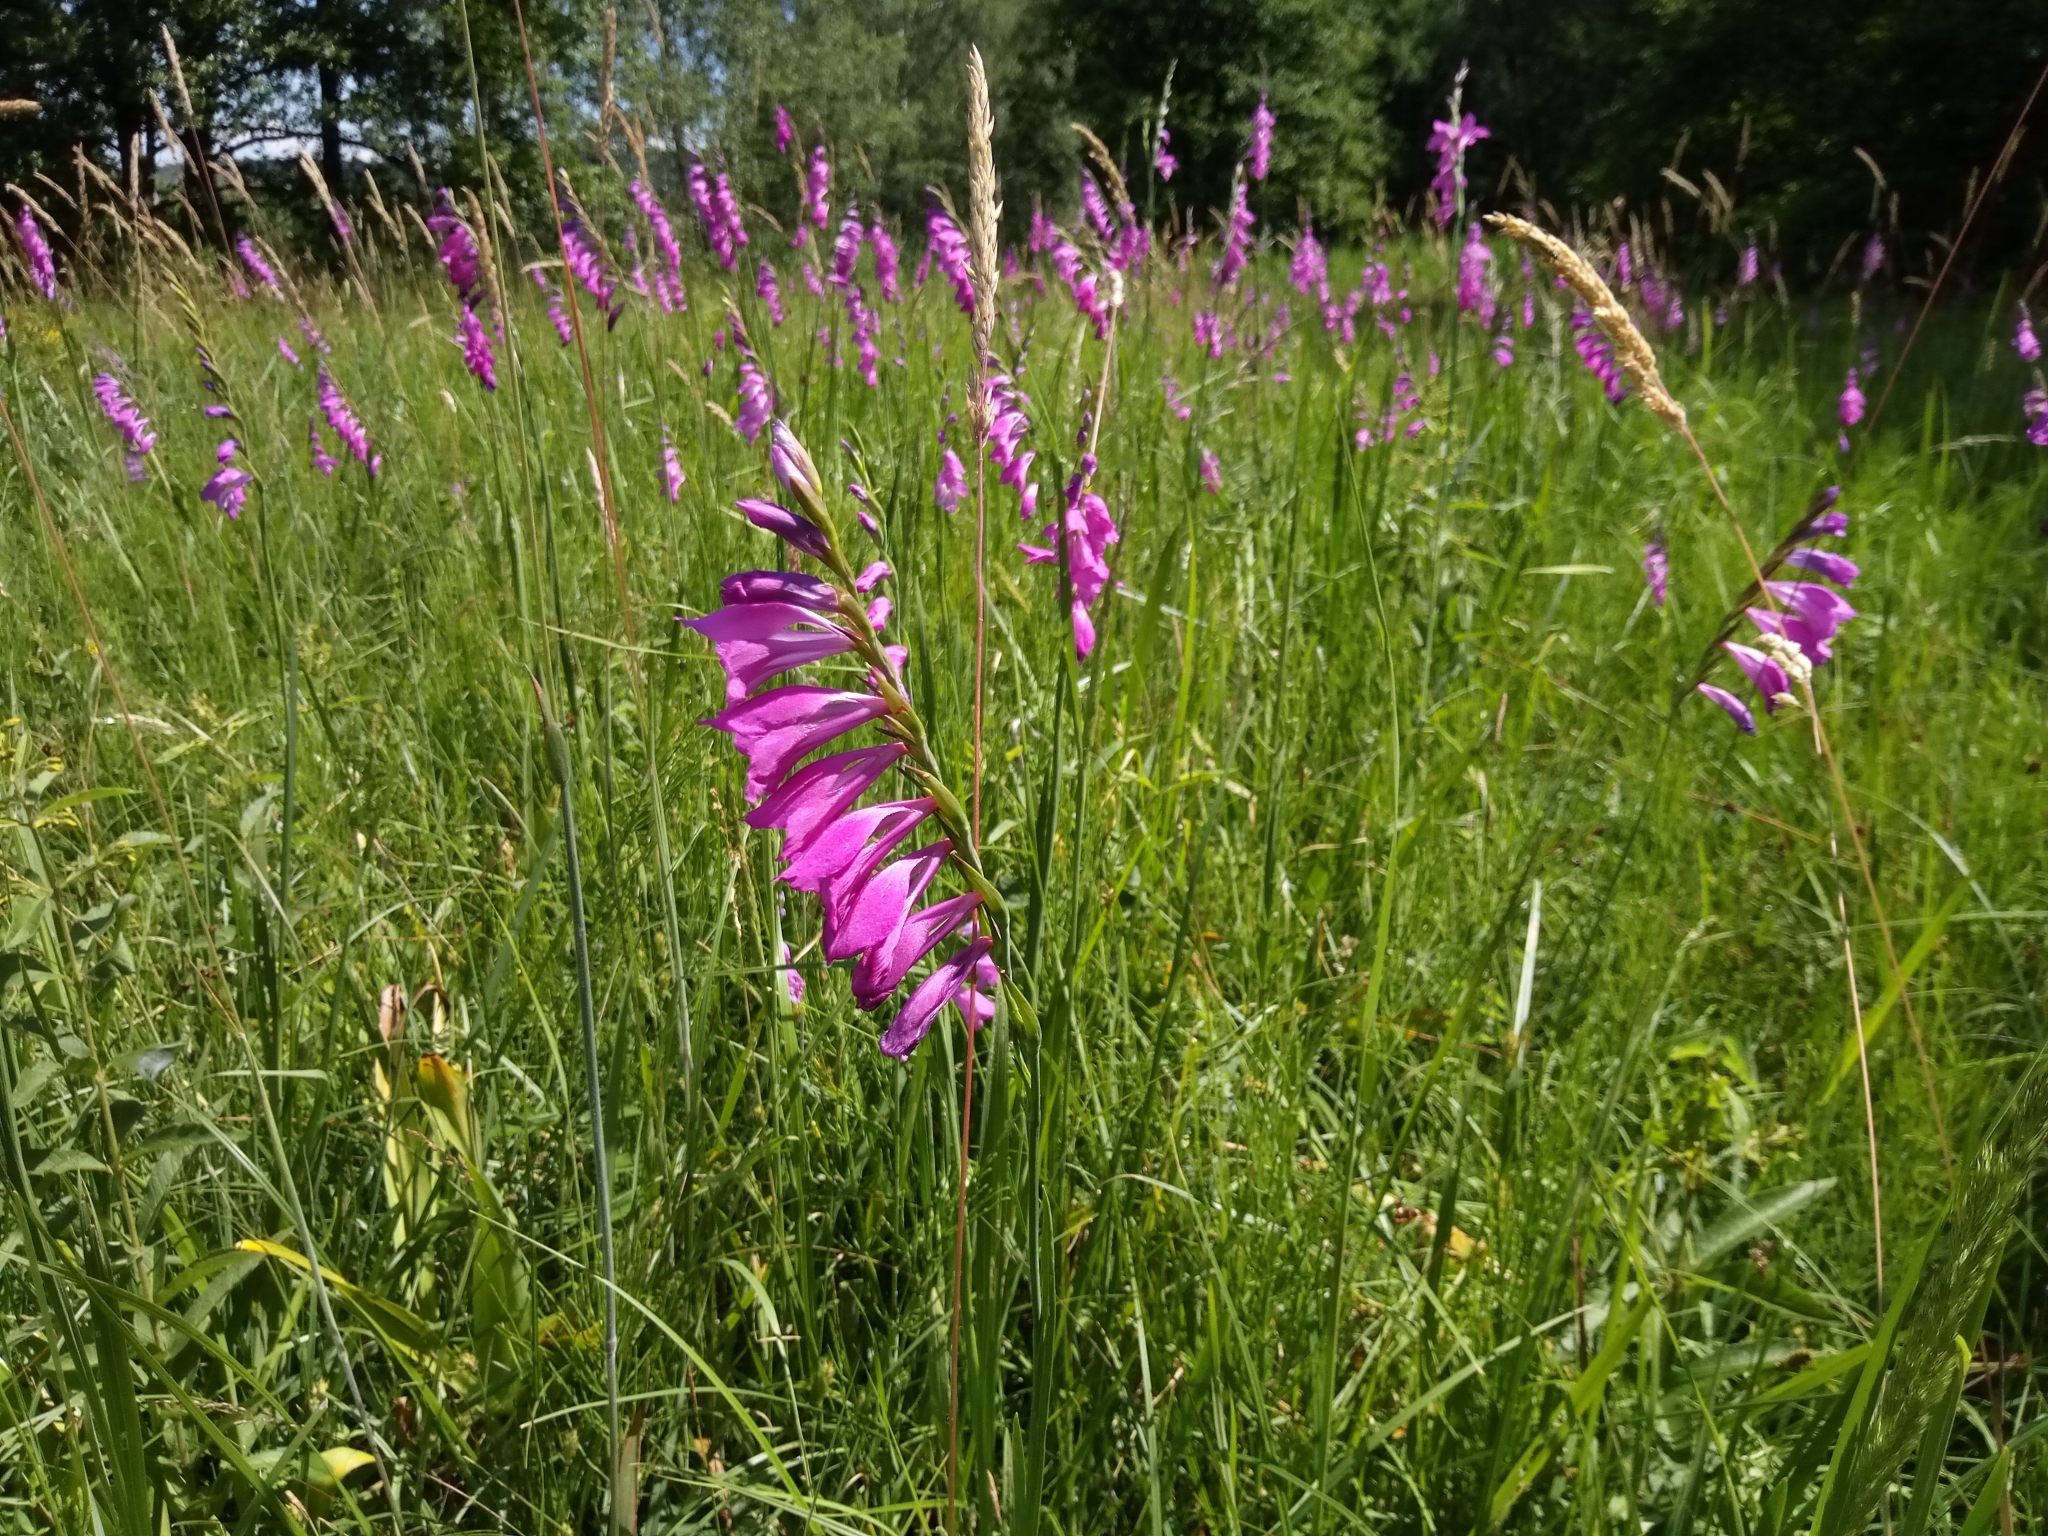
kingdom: Plantae
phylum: Tracheophyta
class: Liliopsida
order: Asparagales
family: Iridaceae
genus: Gladiolus
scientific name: Gladiolus imbricatus
